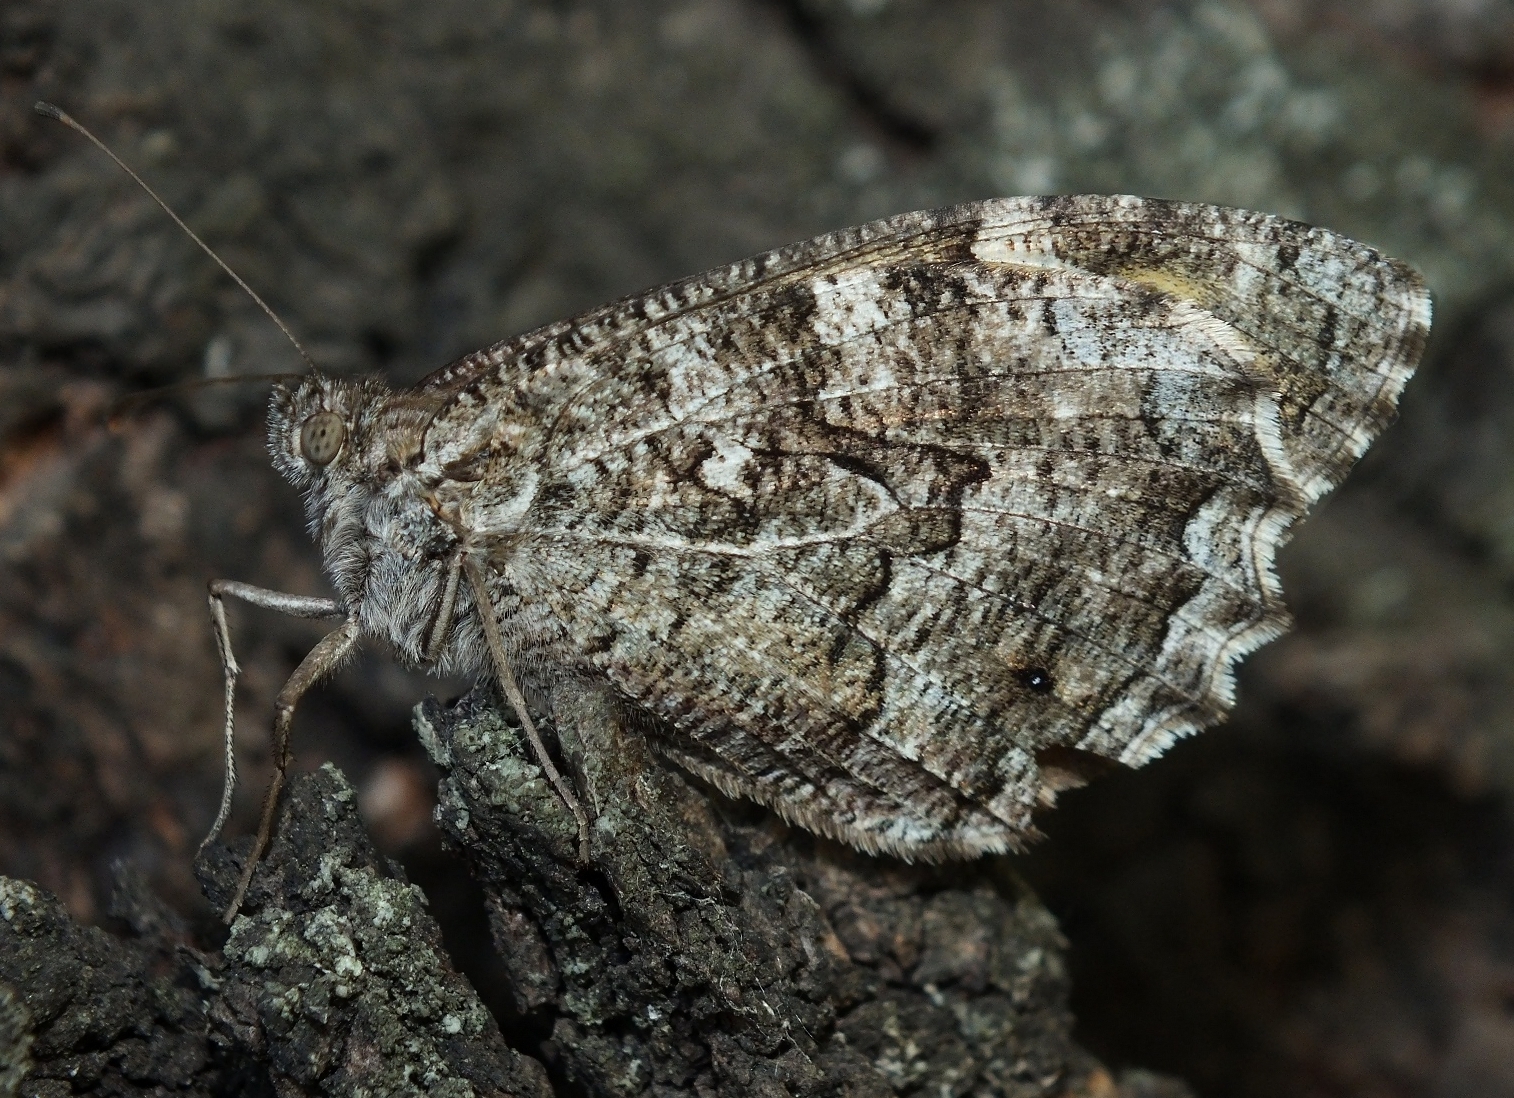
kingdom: Animalia
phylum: Arthropoda
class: Insecta
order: Lepidoptera
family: Nymphalidae
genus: Hipparchia
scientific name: Hipparchia volgensis
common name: Delattin’s grayling
